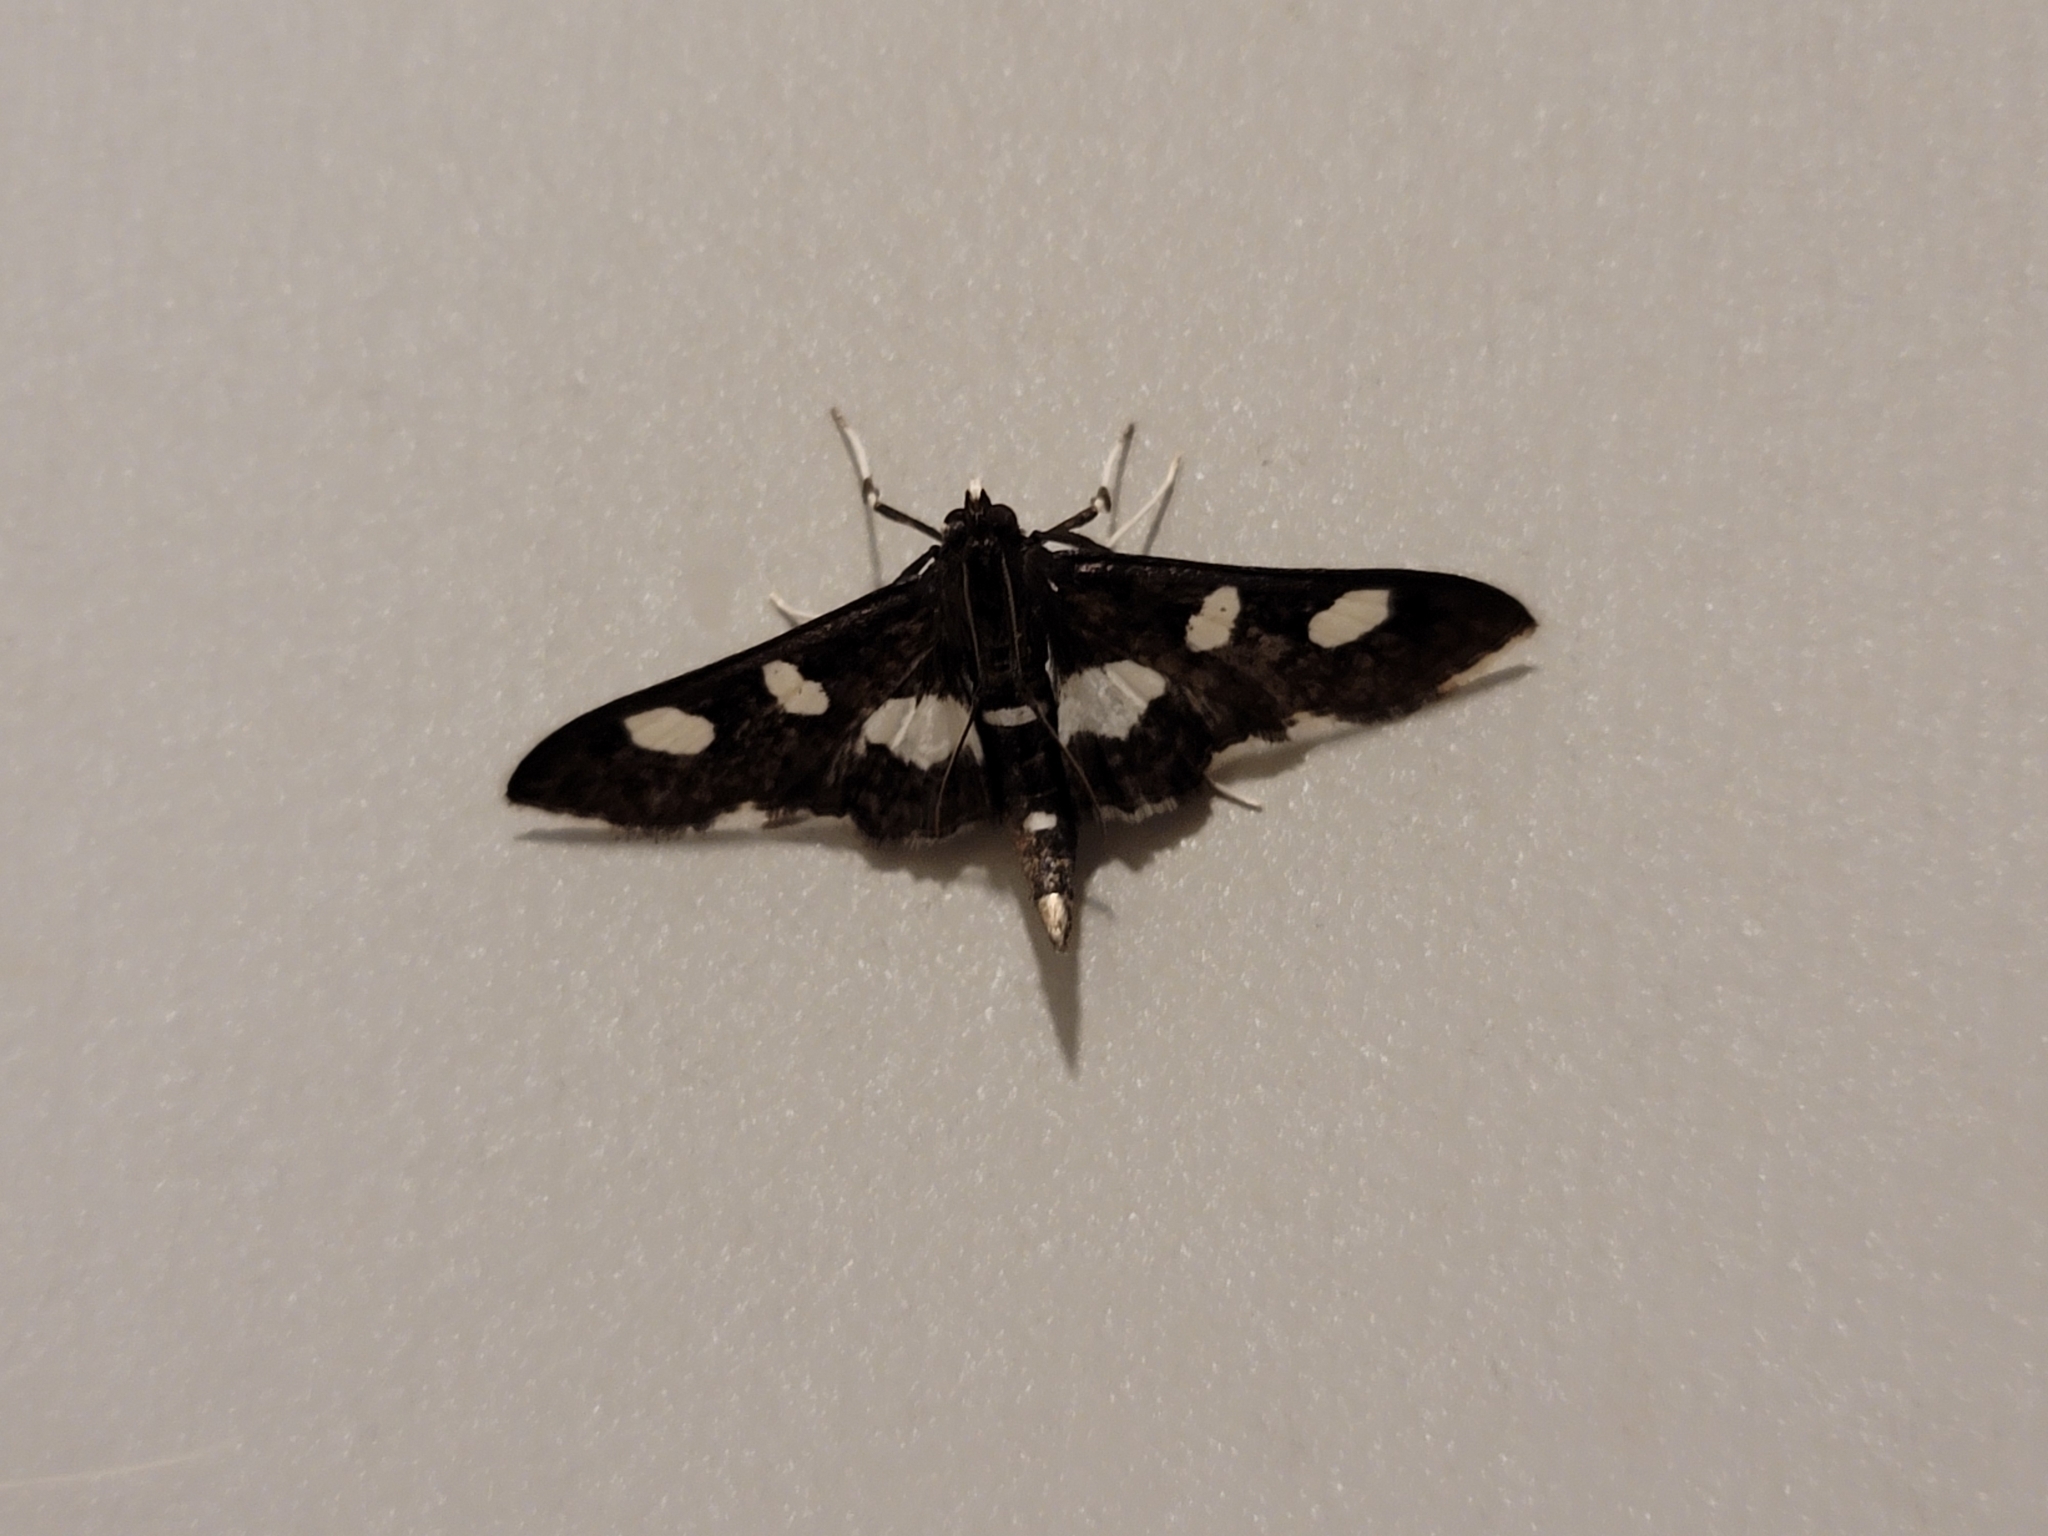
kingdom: Animalia
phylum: Arthropoda
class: Insecta
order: Lepidoptera
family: Crambidae
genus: Desmia
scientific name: Desmia
